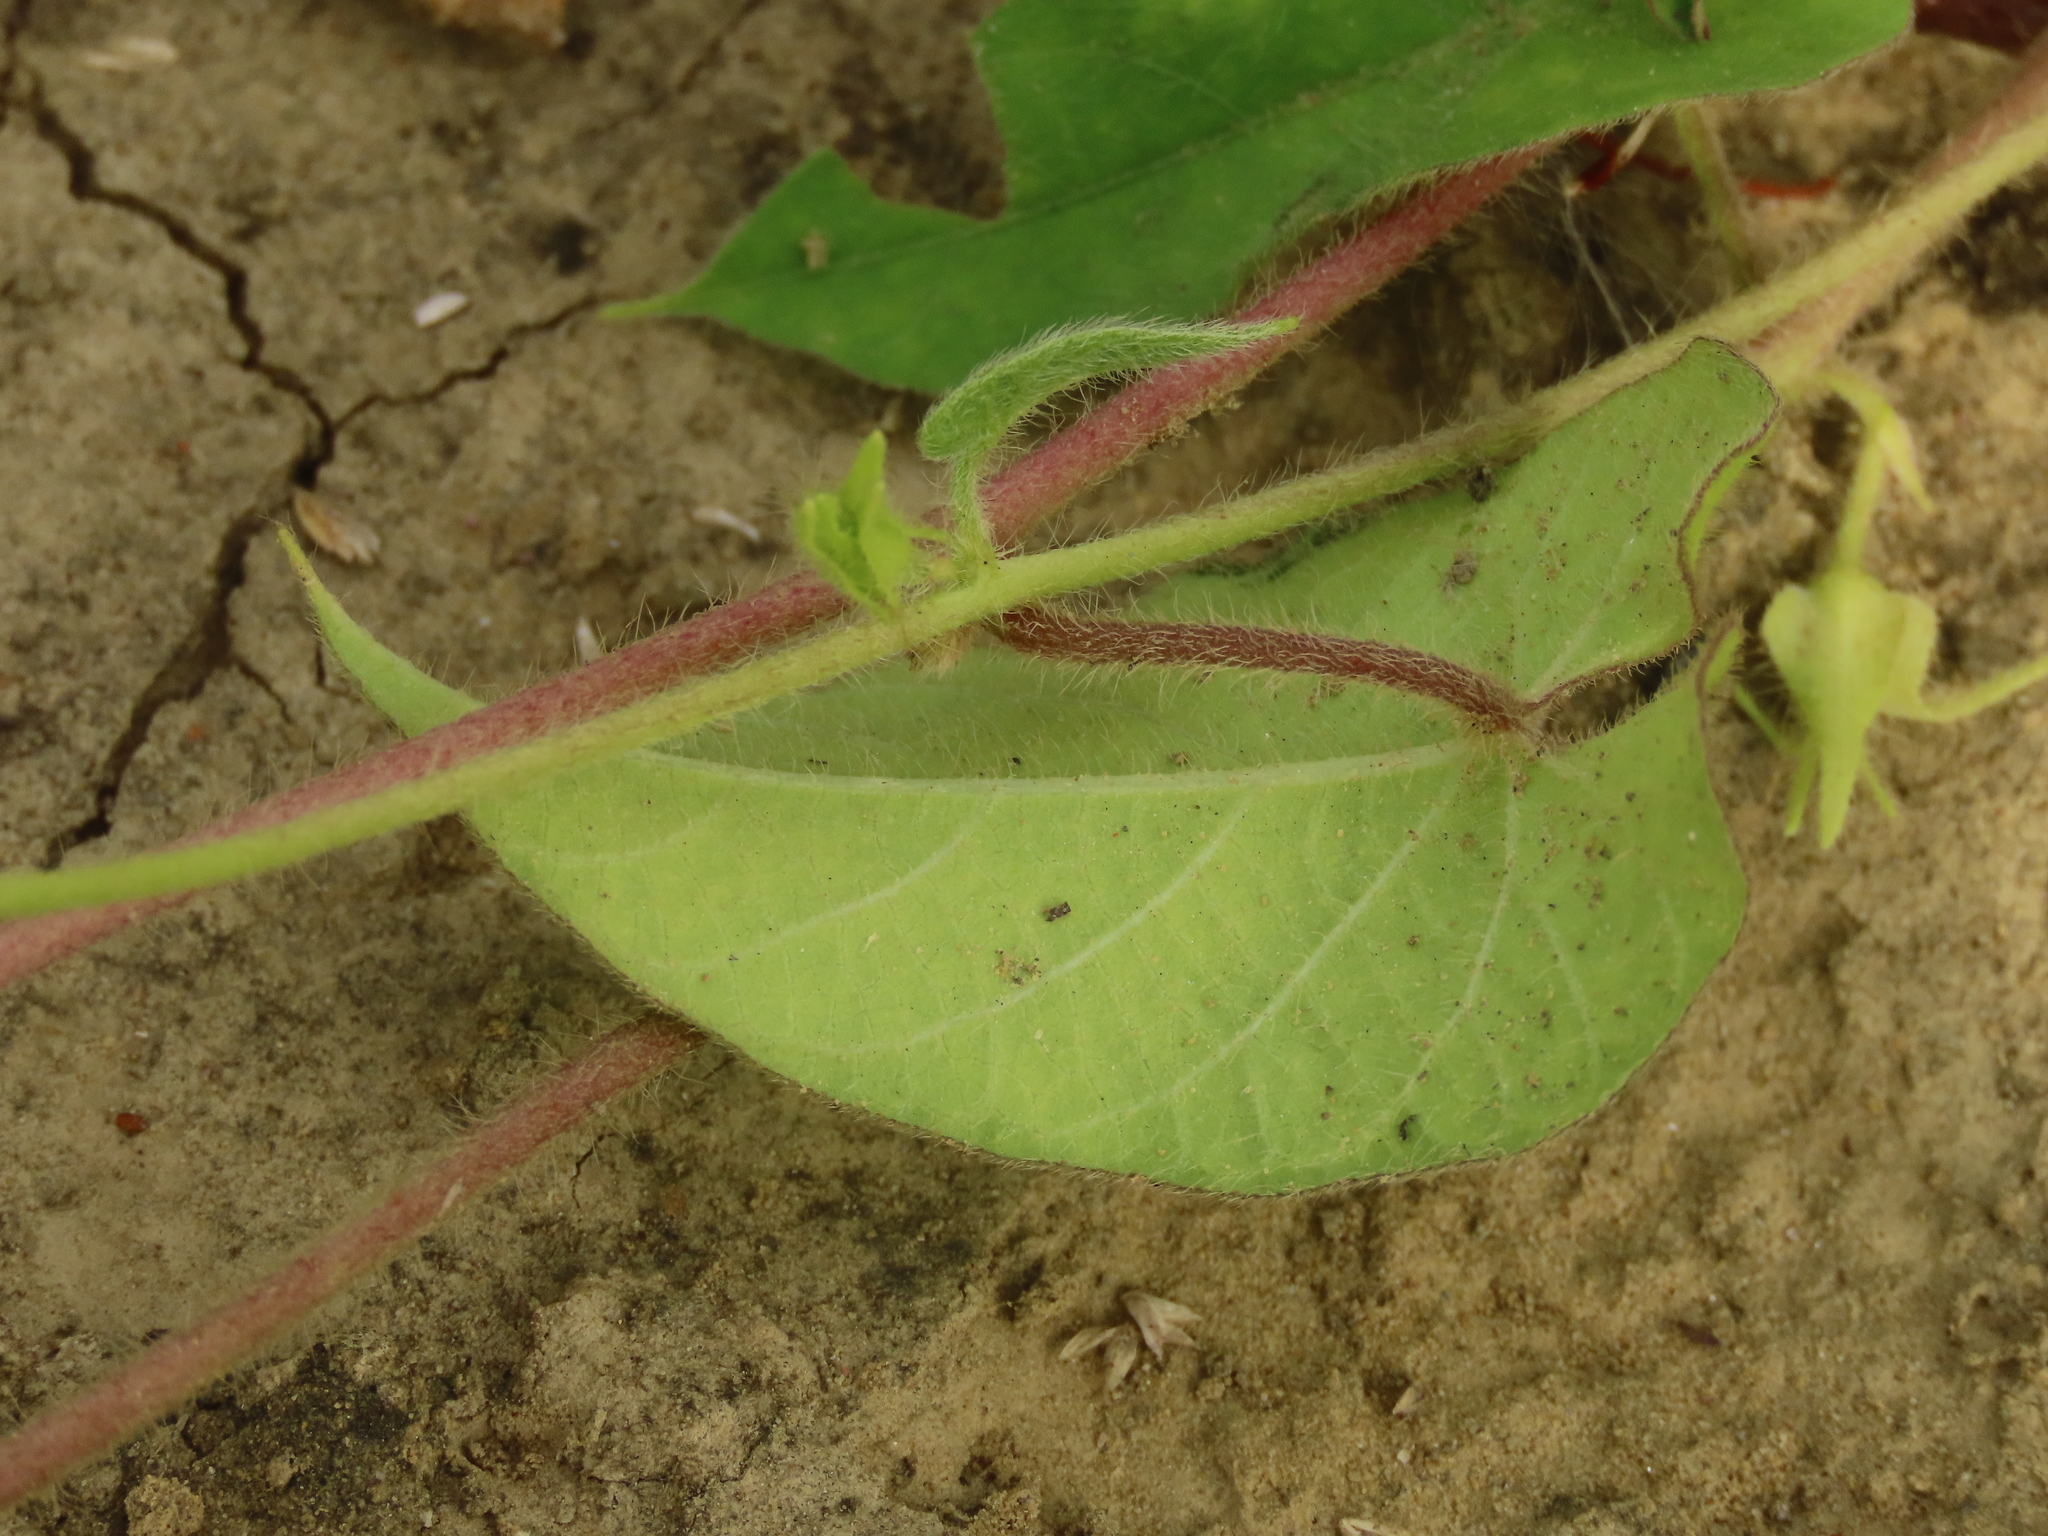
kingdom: Plantae
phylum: Tracheophyta
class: Magnoliopsida
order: Solanales
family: Convolvulaceae
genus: Ipomoea
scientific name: Ipomoea biflora
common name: Bellvine
